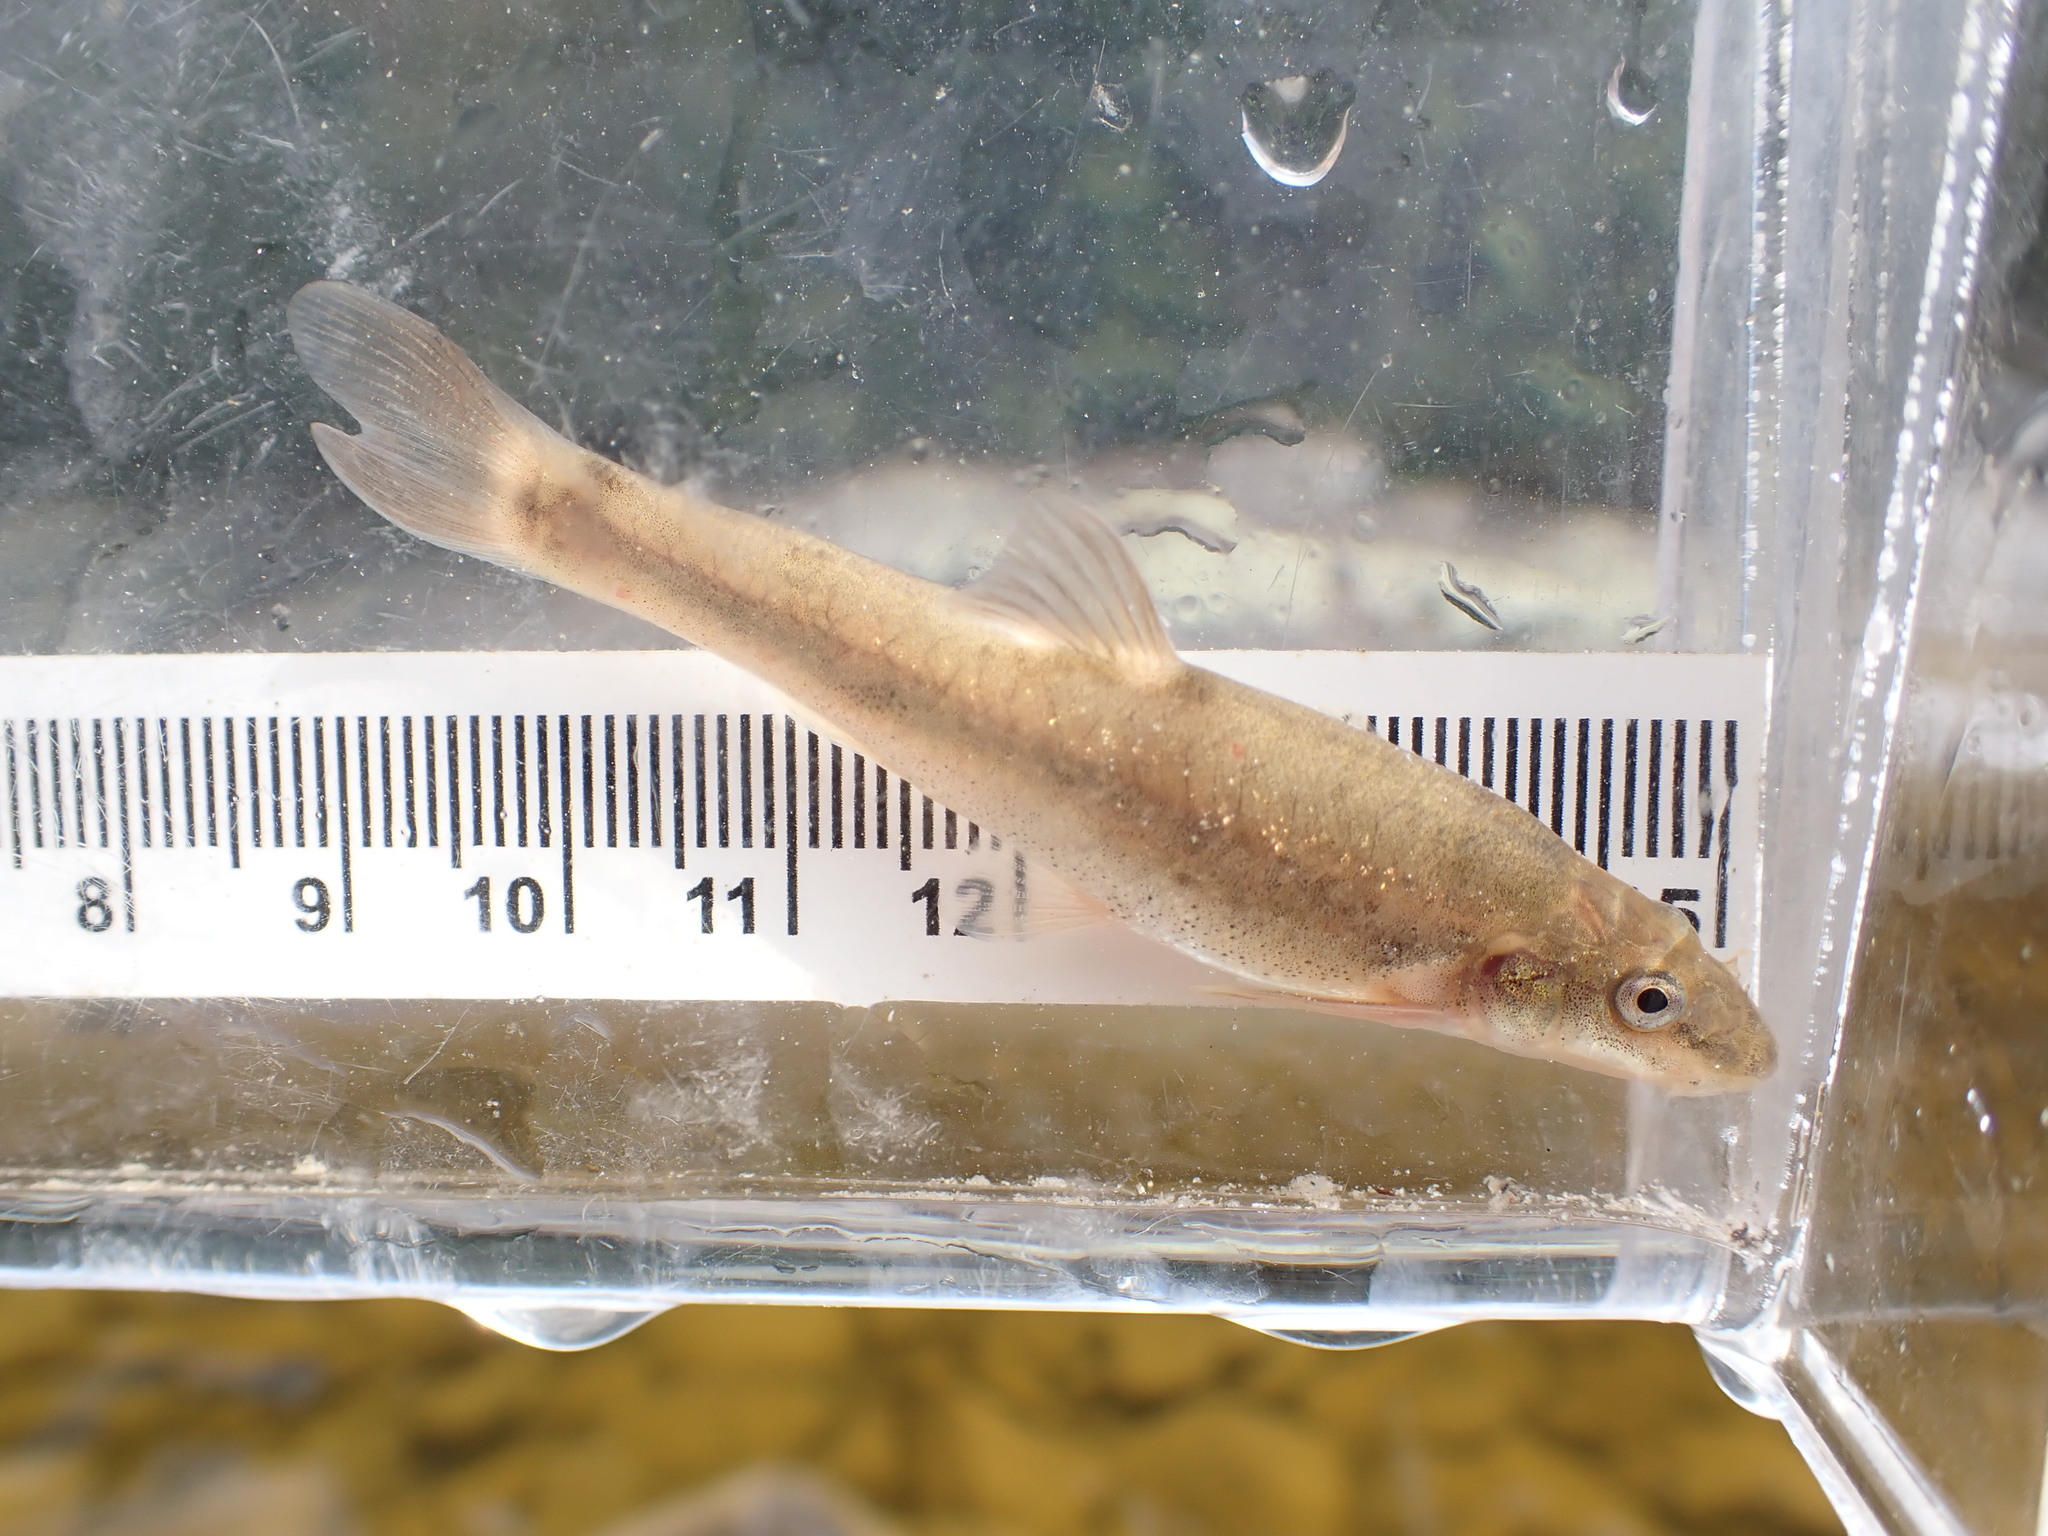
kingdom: Animalia
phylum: Chordata
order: Cypriniformes
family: Cyprinidae
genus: Rhinichthys
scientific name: Rhinichthys cataractae
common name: Longnose dace
